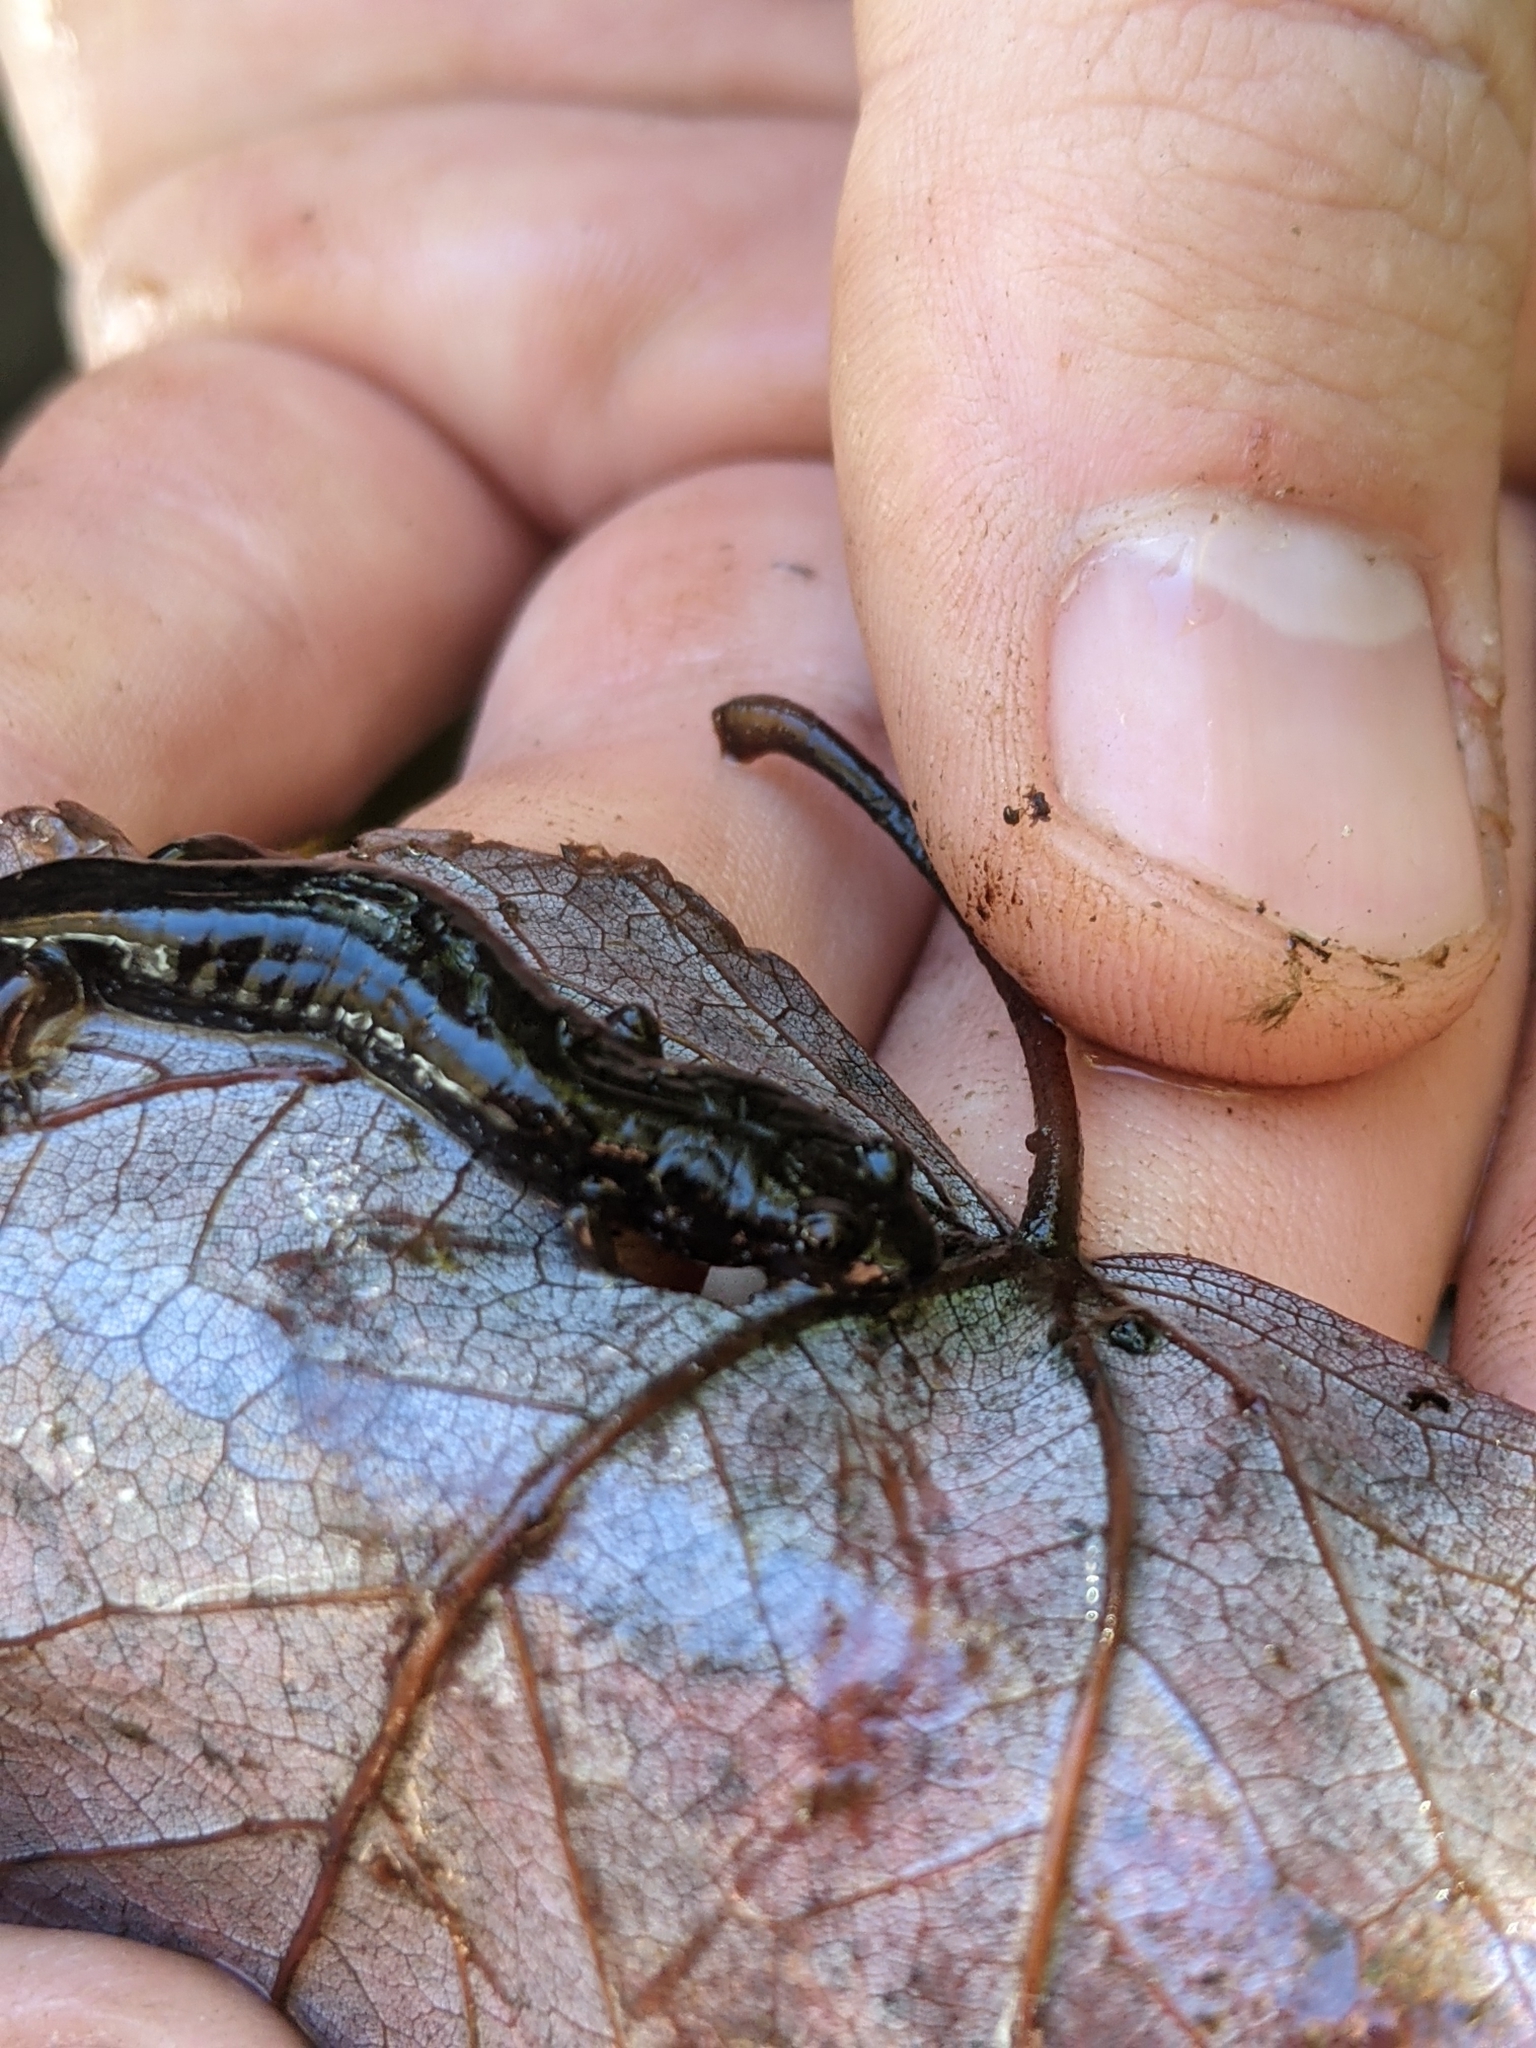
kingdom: Animalia
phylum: Chordata
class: Amphibia
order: Caudata
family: Plethodontidae
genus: Desmognathus
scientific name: Desmognathus ocoee
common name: Ocoee salamander
